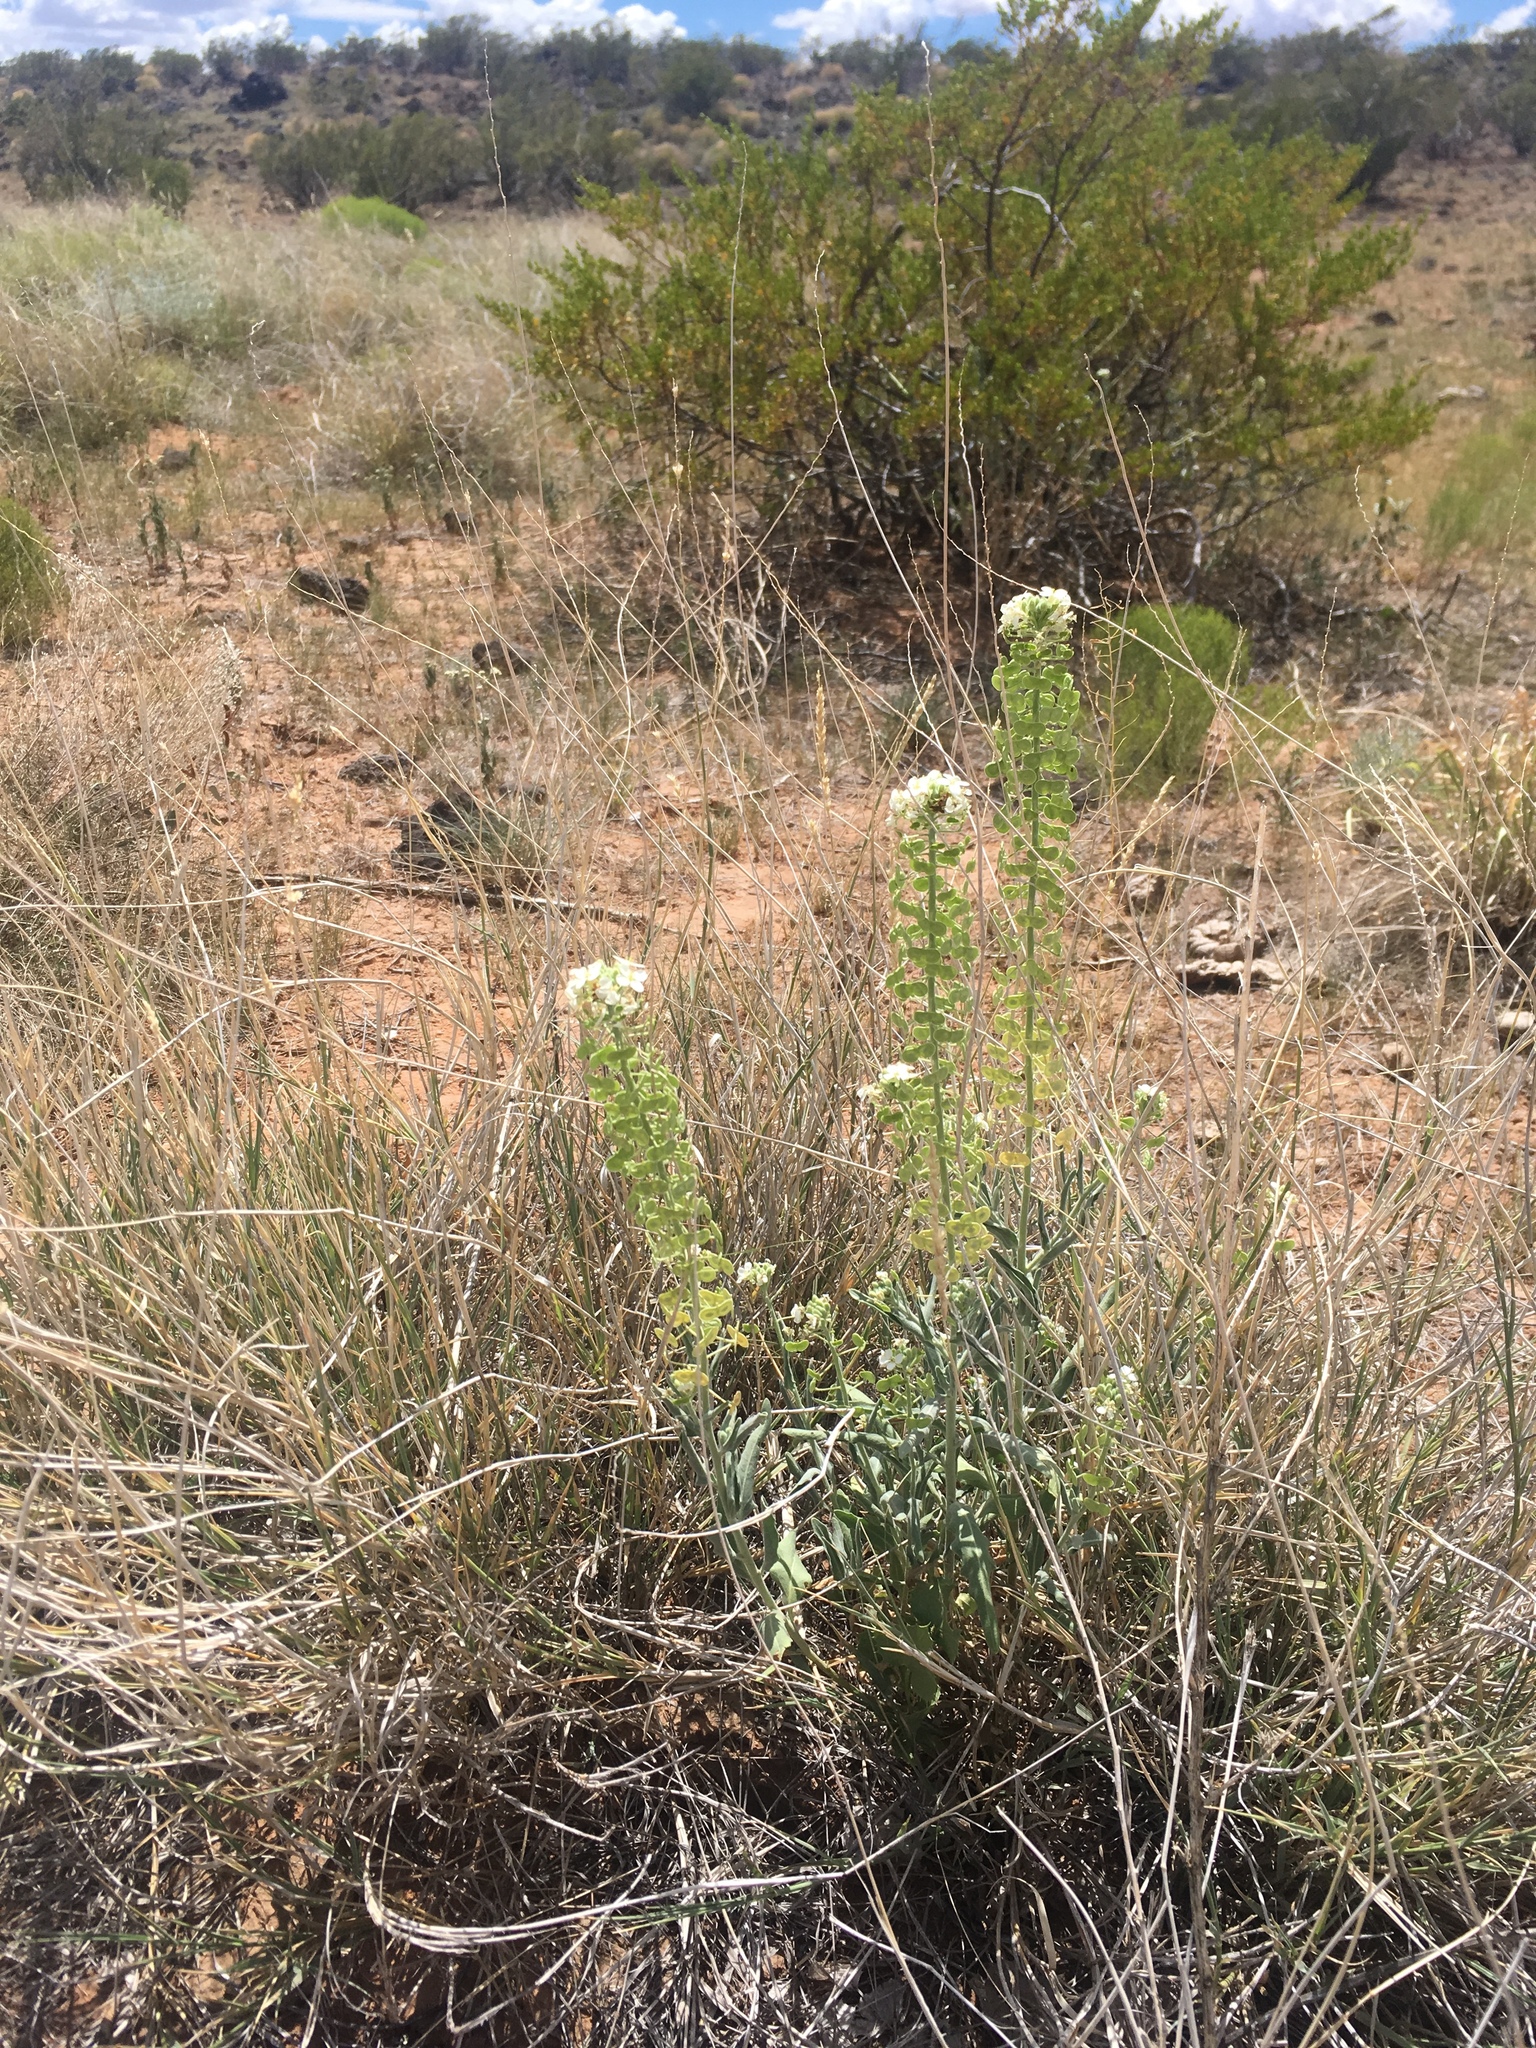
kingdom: Plantae
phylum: Tracheophyta
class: Magnoliopsida
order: Brassicales
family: Brassicaceae
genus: Dimorphocarpa
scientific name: Dimorphocarpa wislizenii
